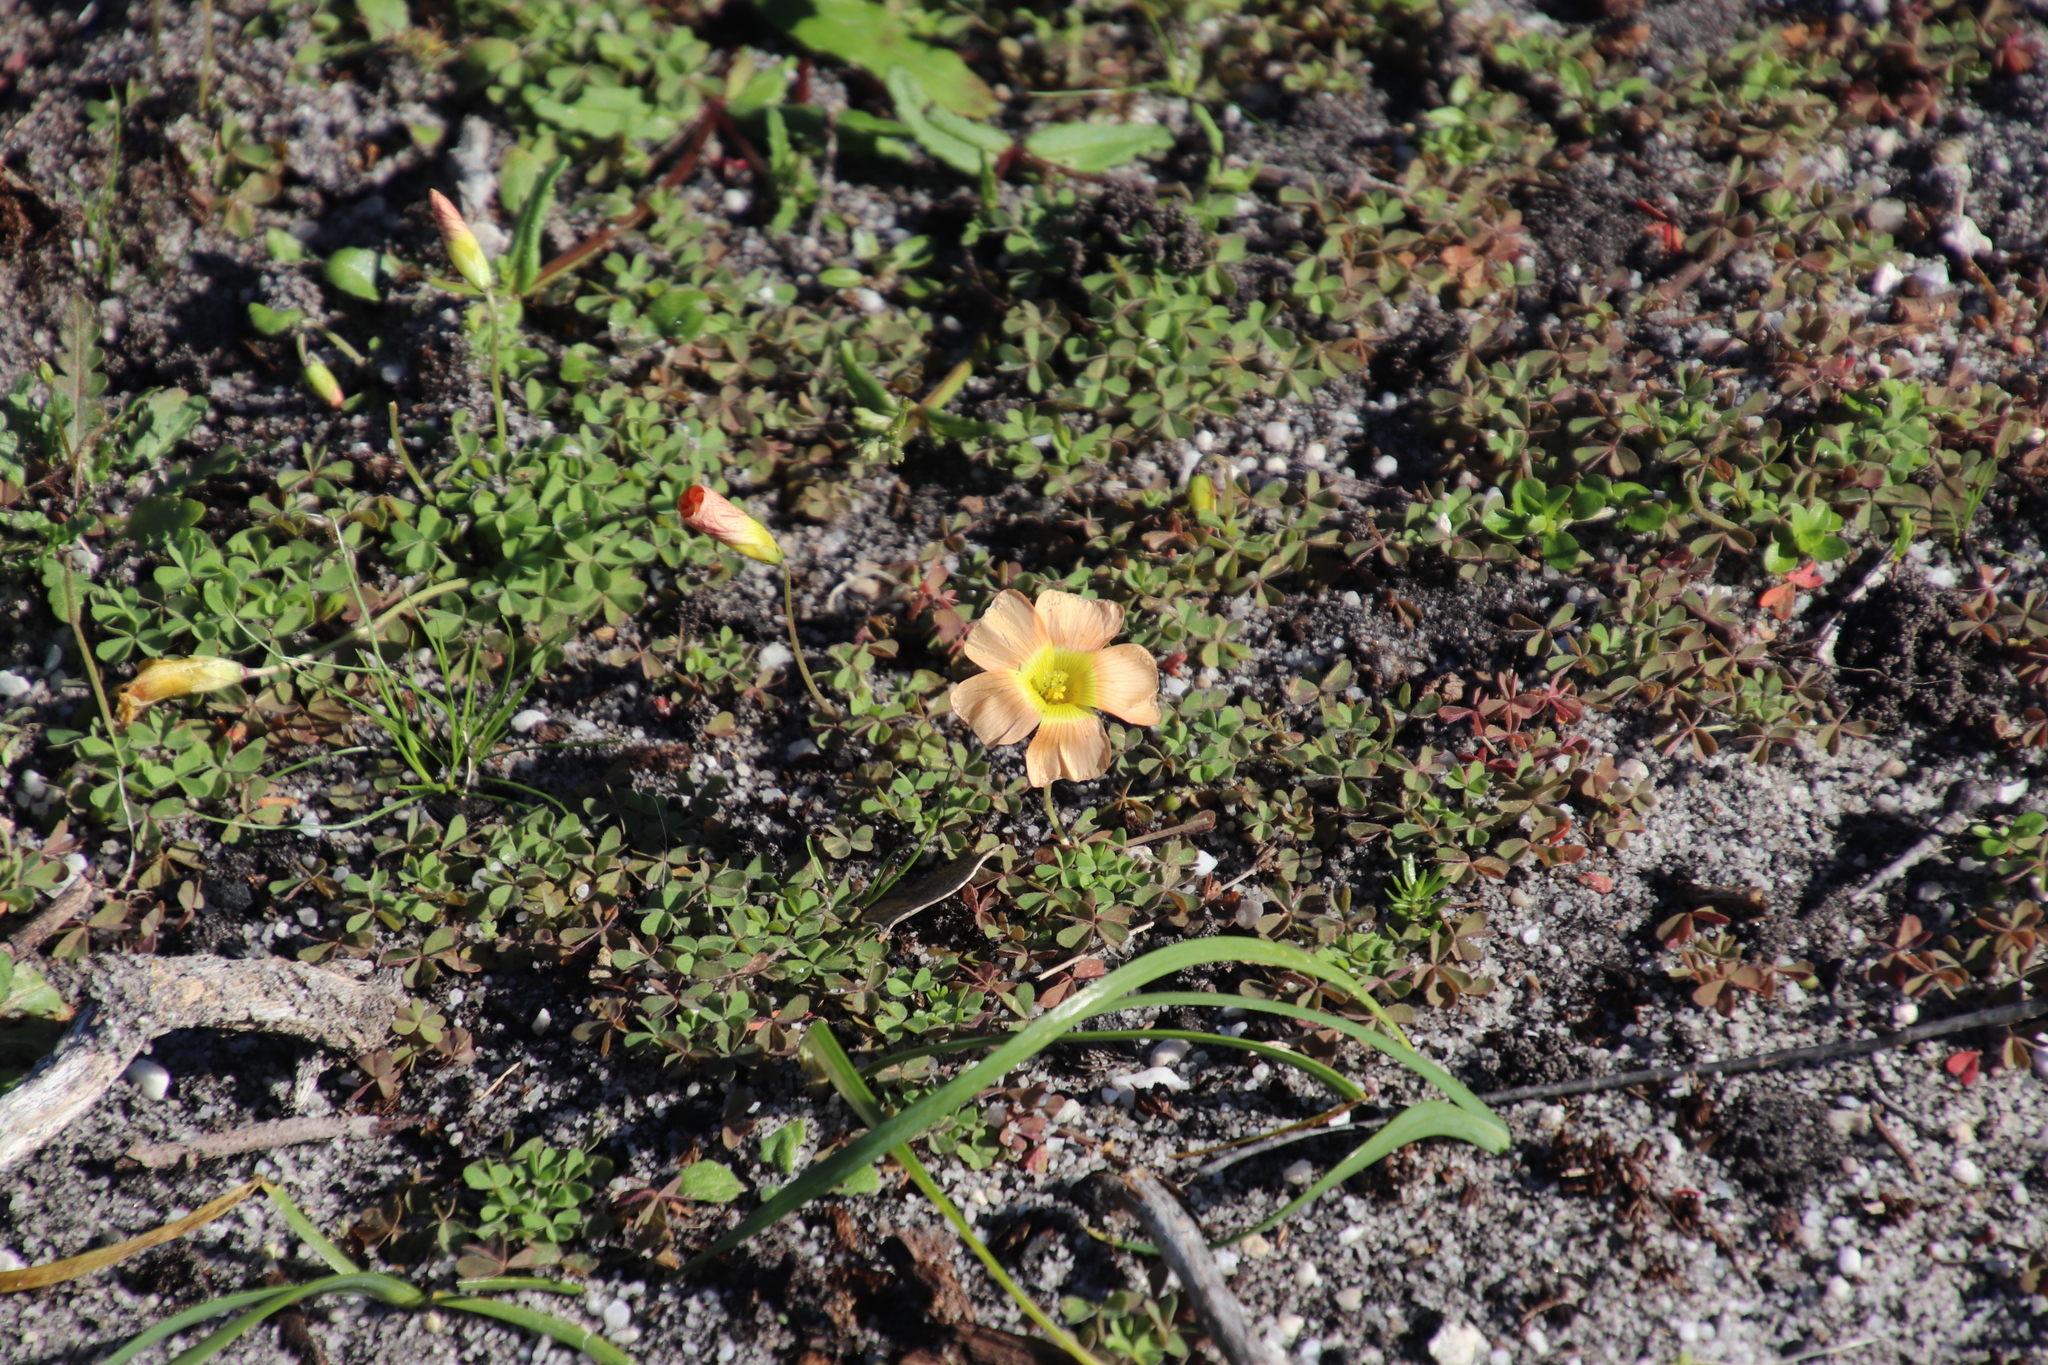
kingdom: Plantae
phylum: Tracheophyta
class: Magnoliopsida
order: Oxalidales
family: Oxalidaceae
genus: Oxalis
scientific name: Oxalis obtusa
